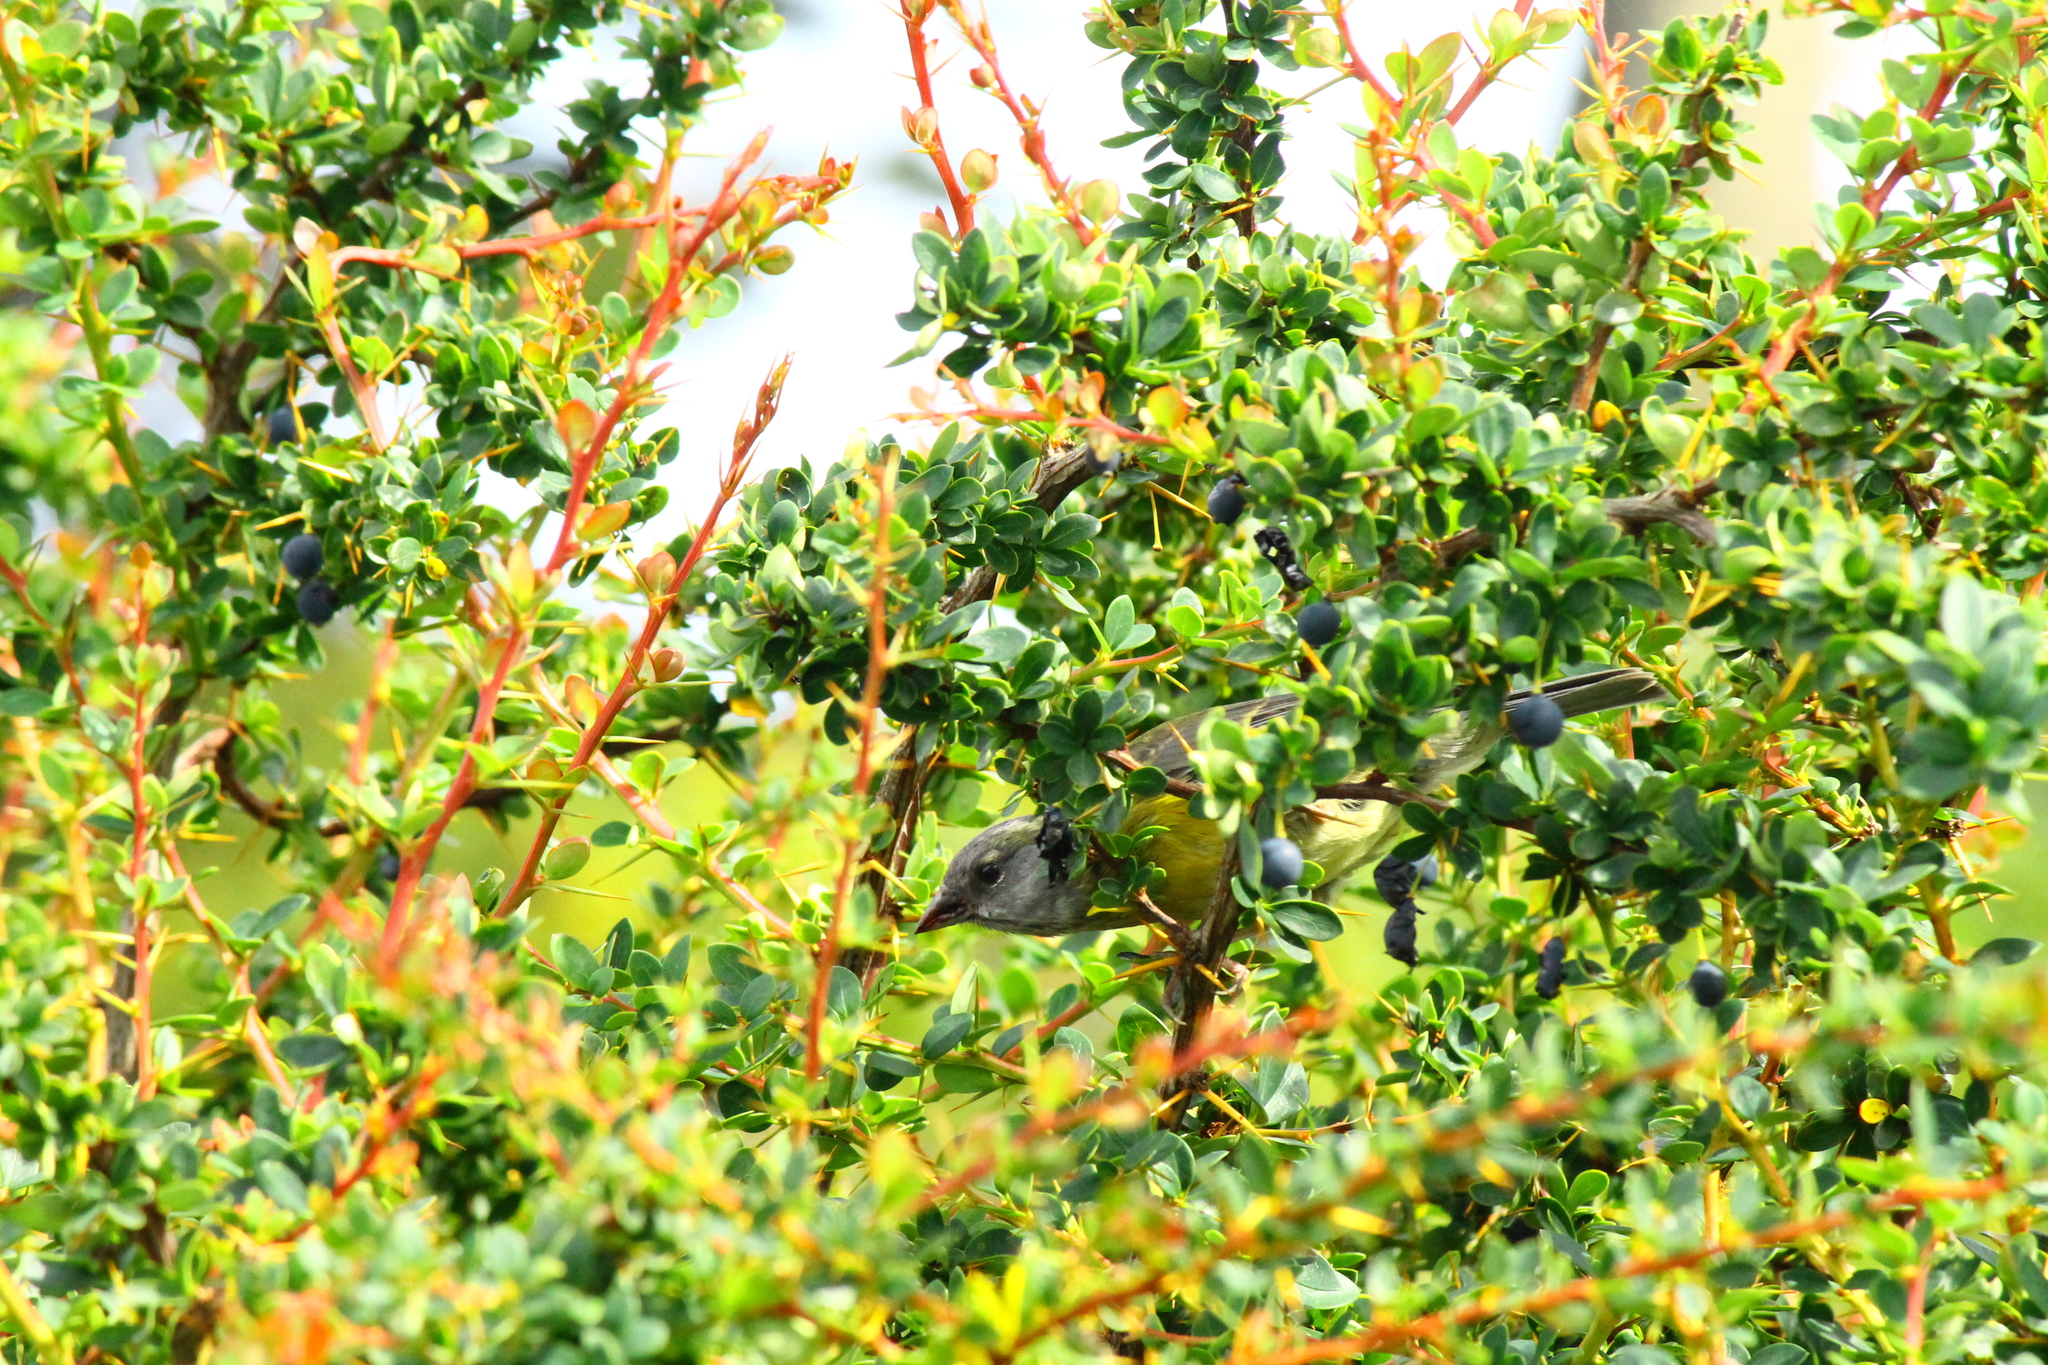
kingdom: Animalia
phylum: Chordata
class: Aves
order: Passeriformes
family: Thraupidae
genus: Phrygilus
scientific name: Phrygilus patagonicus
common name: Patagonian sierra finch
